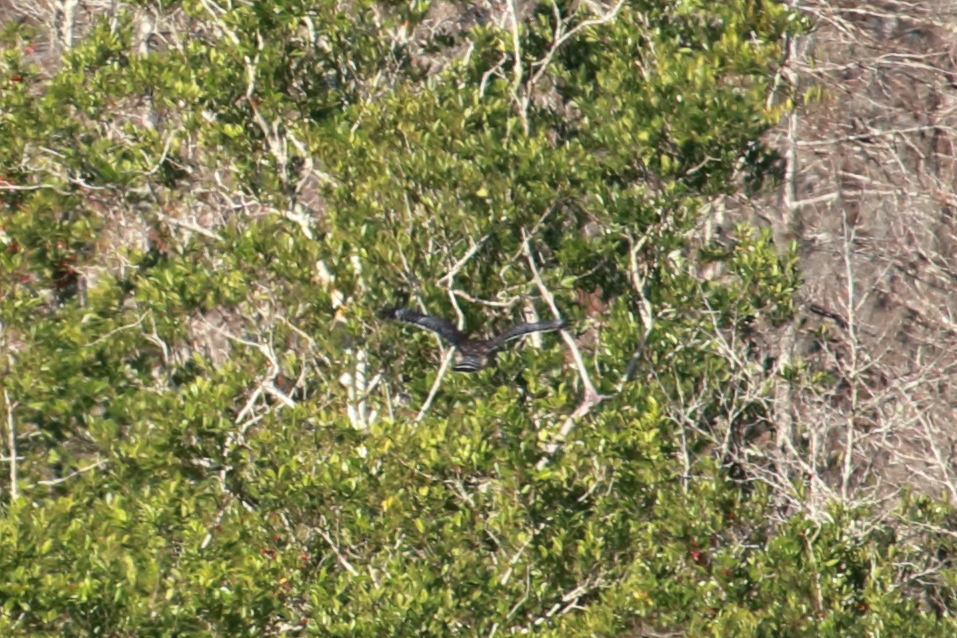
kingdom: Animalia
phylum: Chordata
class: Aves
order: Accipitriformes
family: Accipitridae
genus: Buteo
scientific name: Buteo lineatus
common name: Red-shouldered hawk
